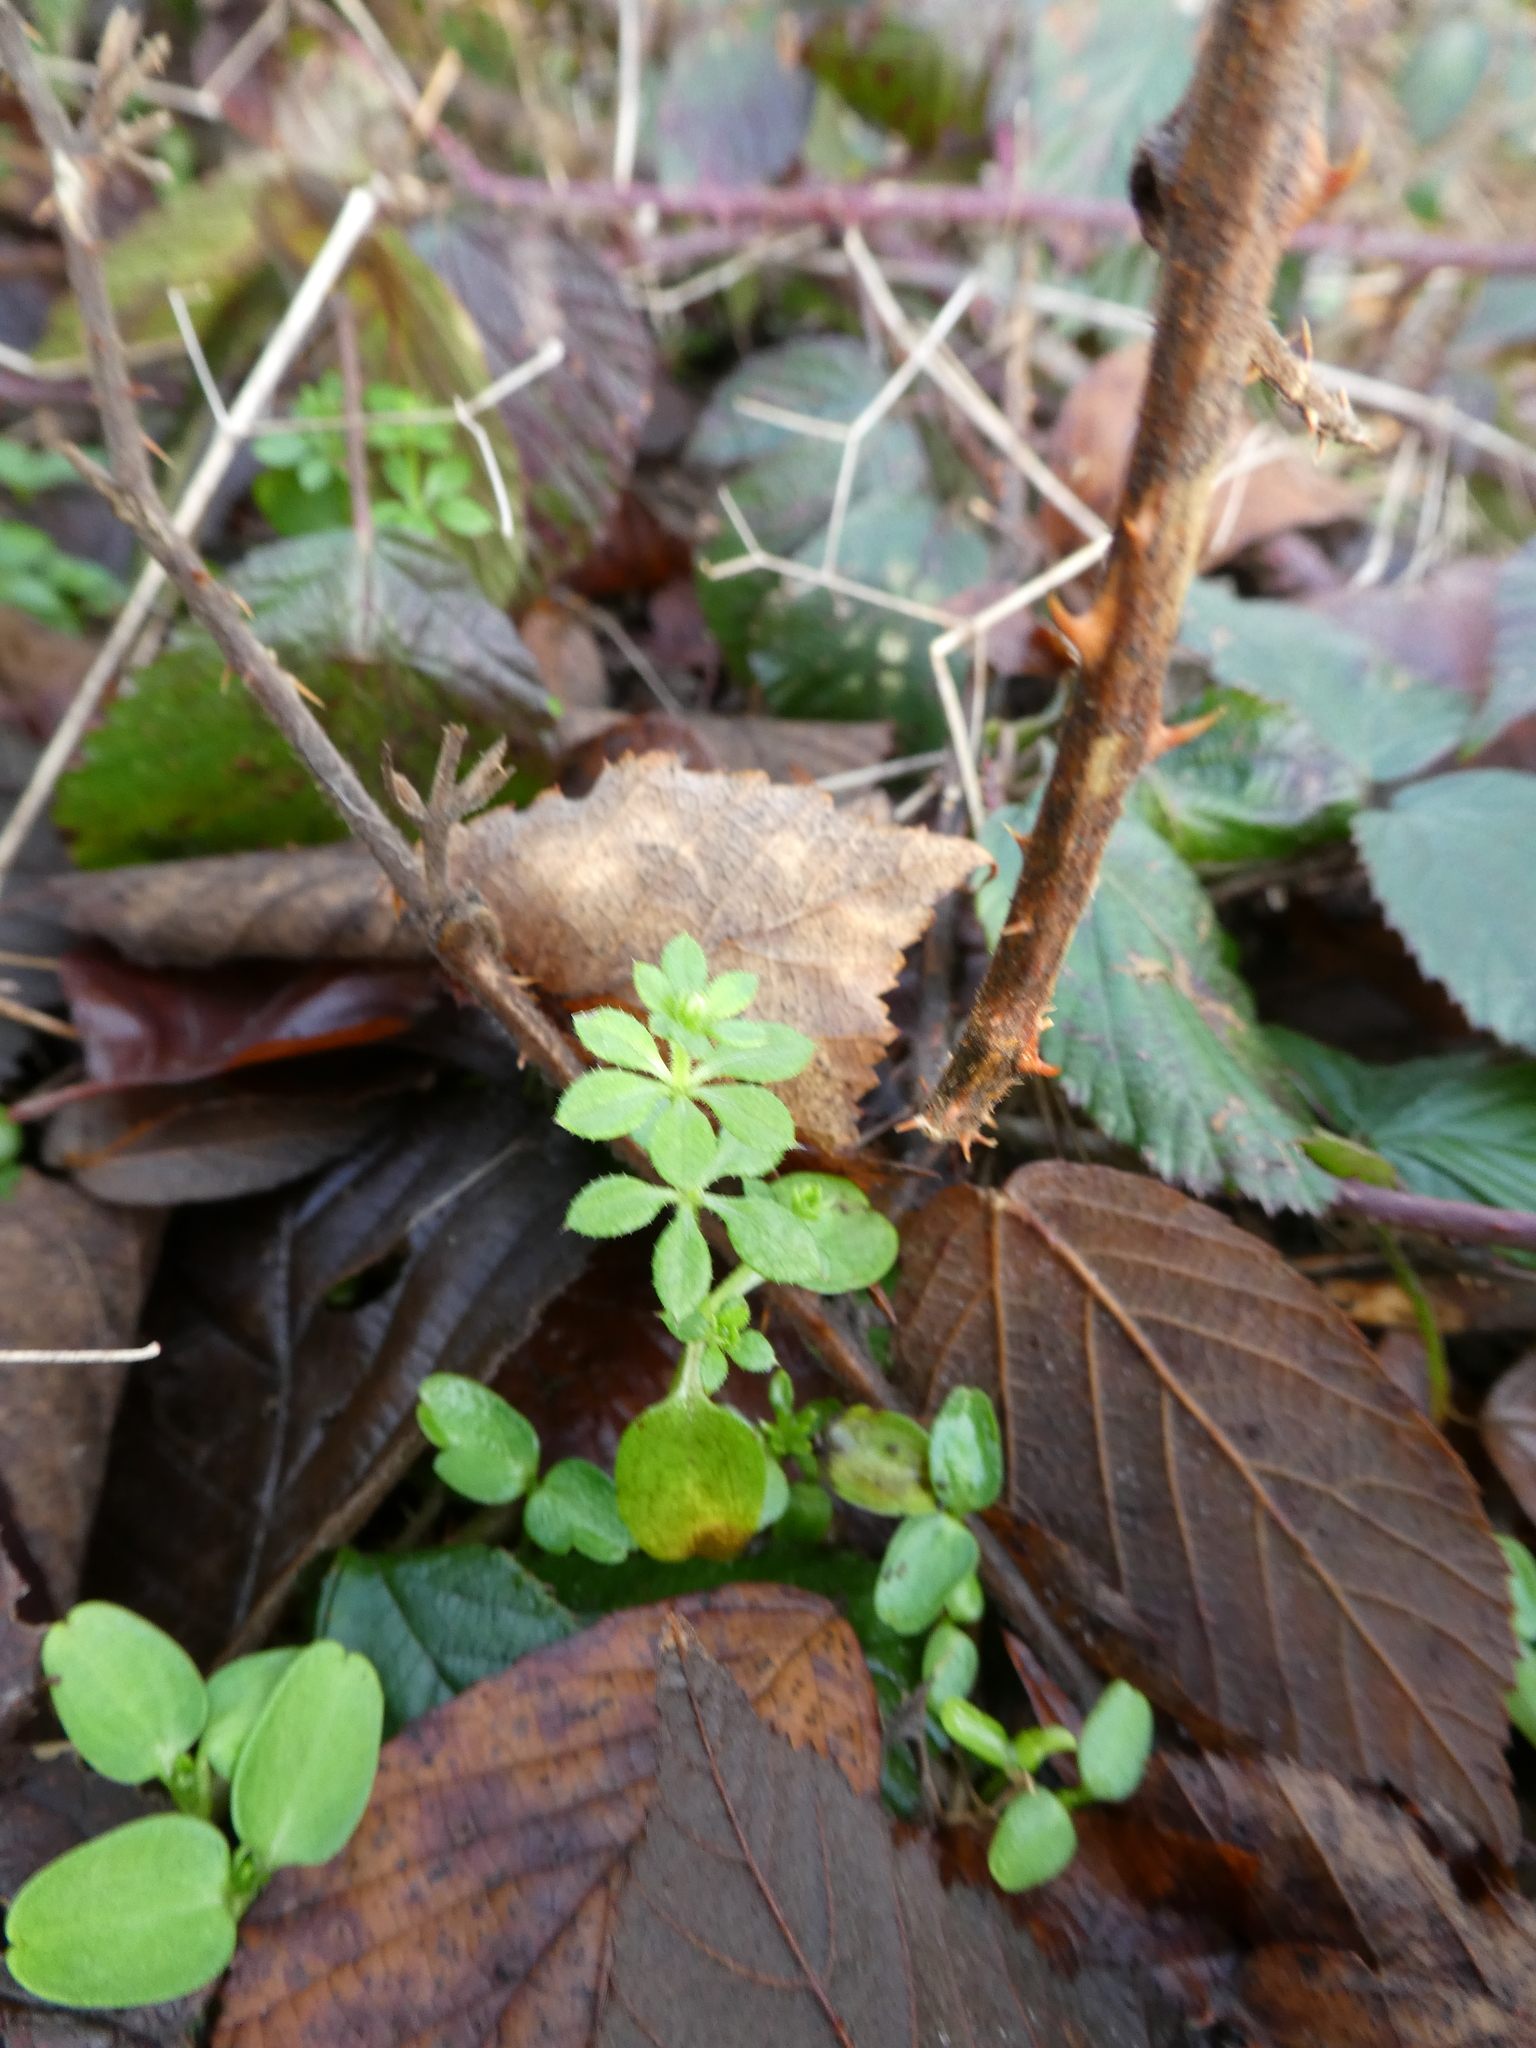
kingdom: Plantae
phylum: Tracheophyta
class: Magnoliopsida
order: Gentianales
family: Rubiaceae
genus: Galium
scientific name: Galium aparine
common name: Cleavers
